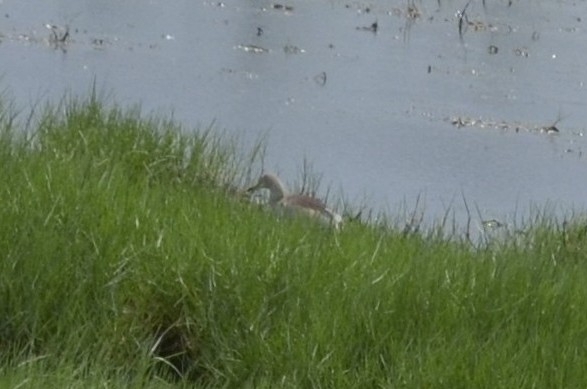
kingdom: Animalia
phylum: Chordata
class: Aves
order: Pelecaniformes
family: Ardeidae
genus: Ardeola
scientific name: Ardeola grayii
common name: Indian pond heron
